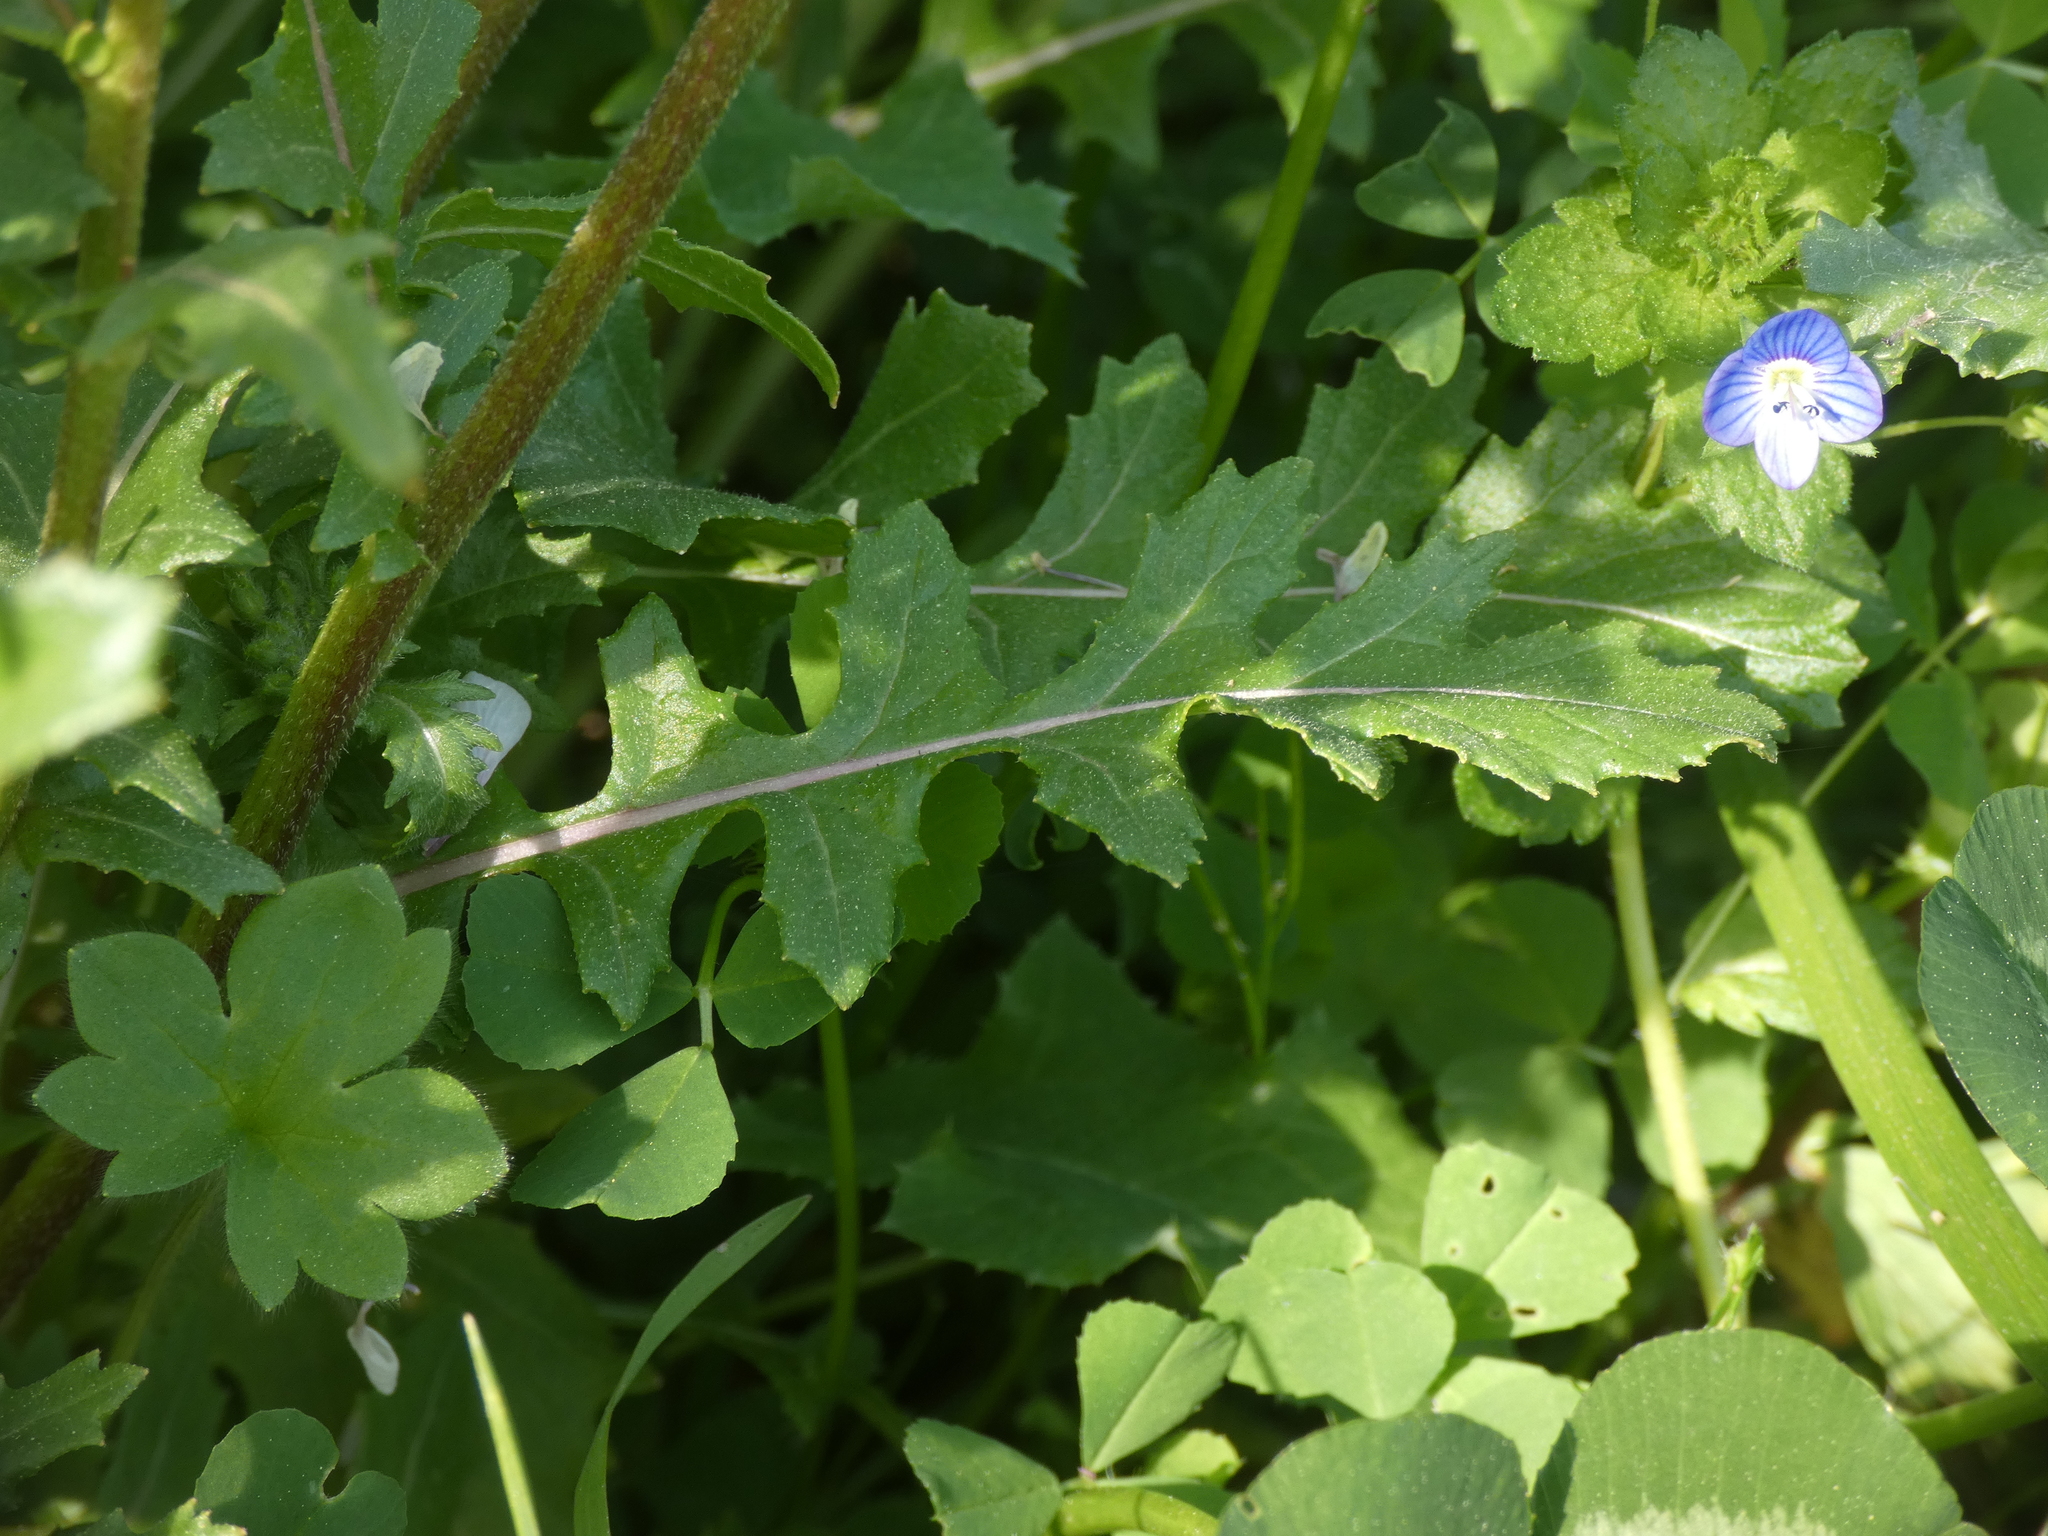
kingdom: Plantae
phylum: Tracheophyta
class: Magnoliopsida
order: Brassicales
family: Brassicaceae
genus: Diplotaxis
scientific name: Diplotaxis erucoides
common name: White rocket
